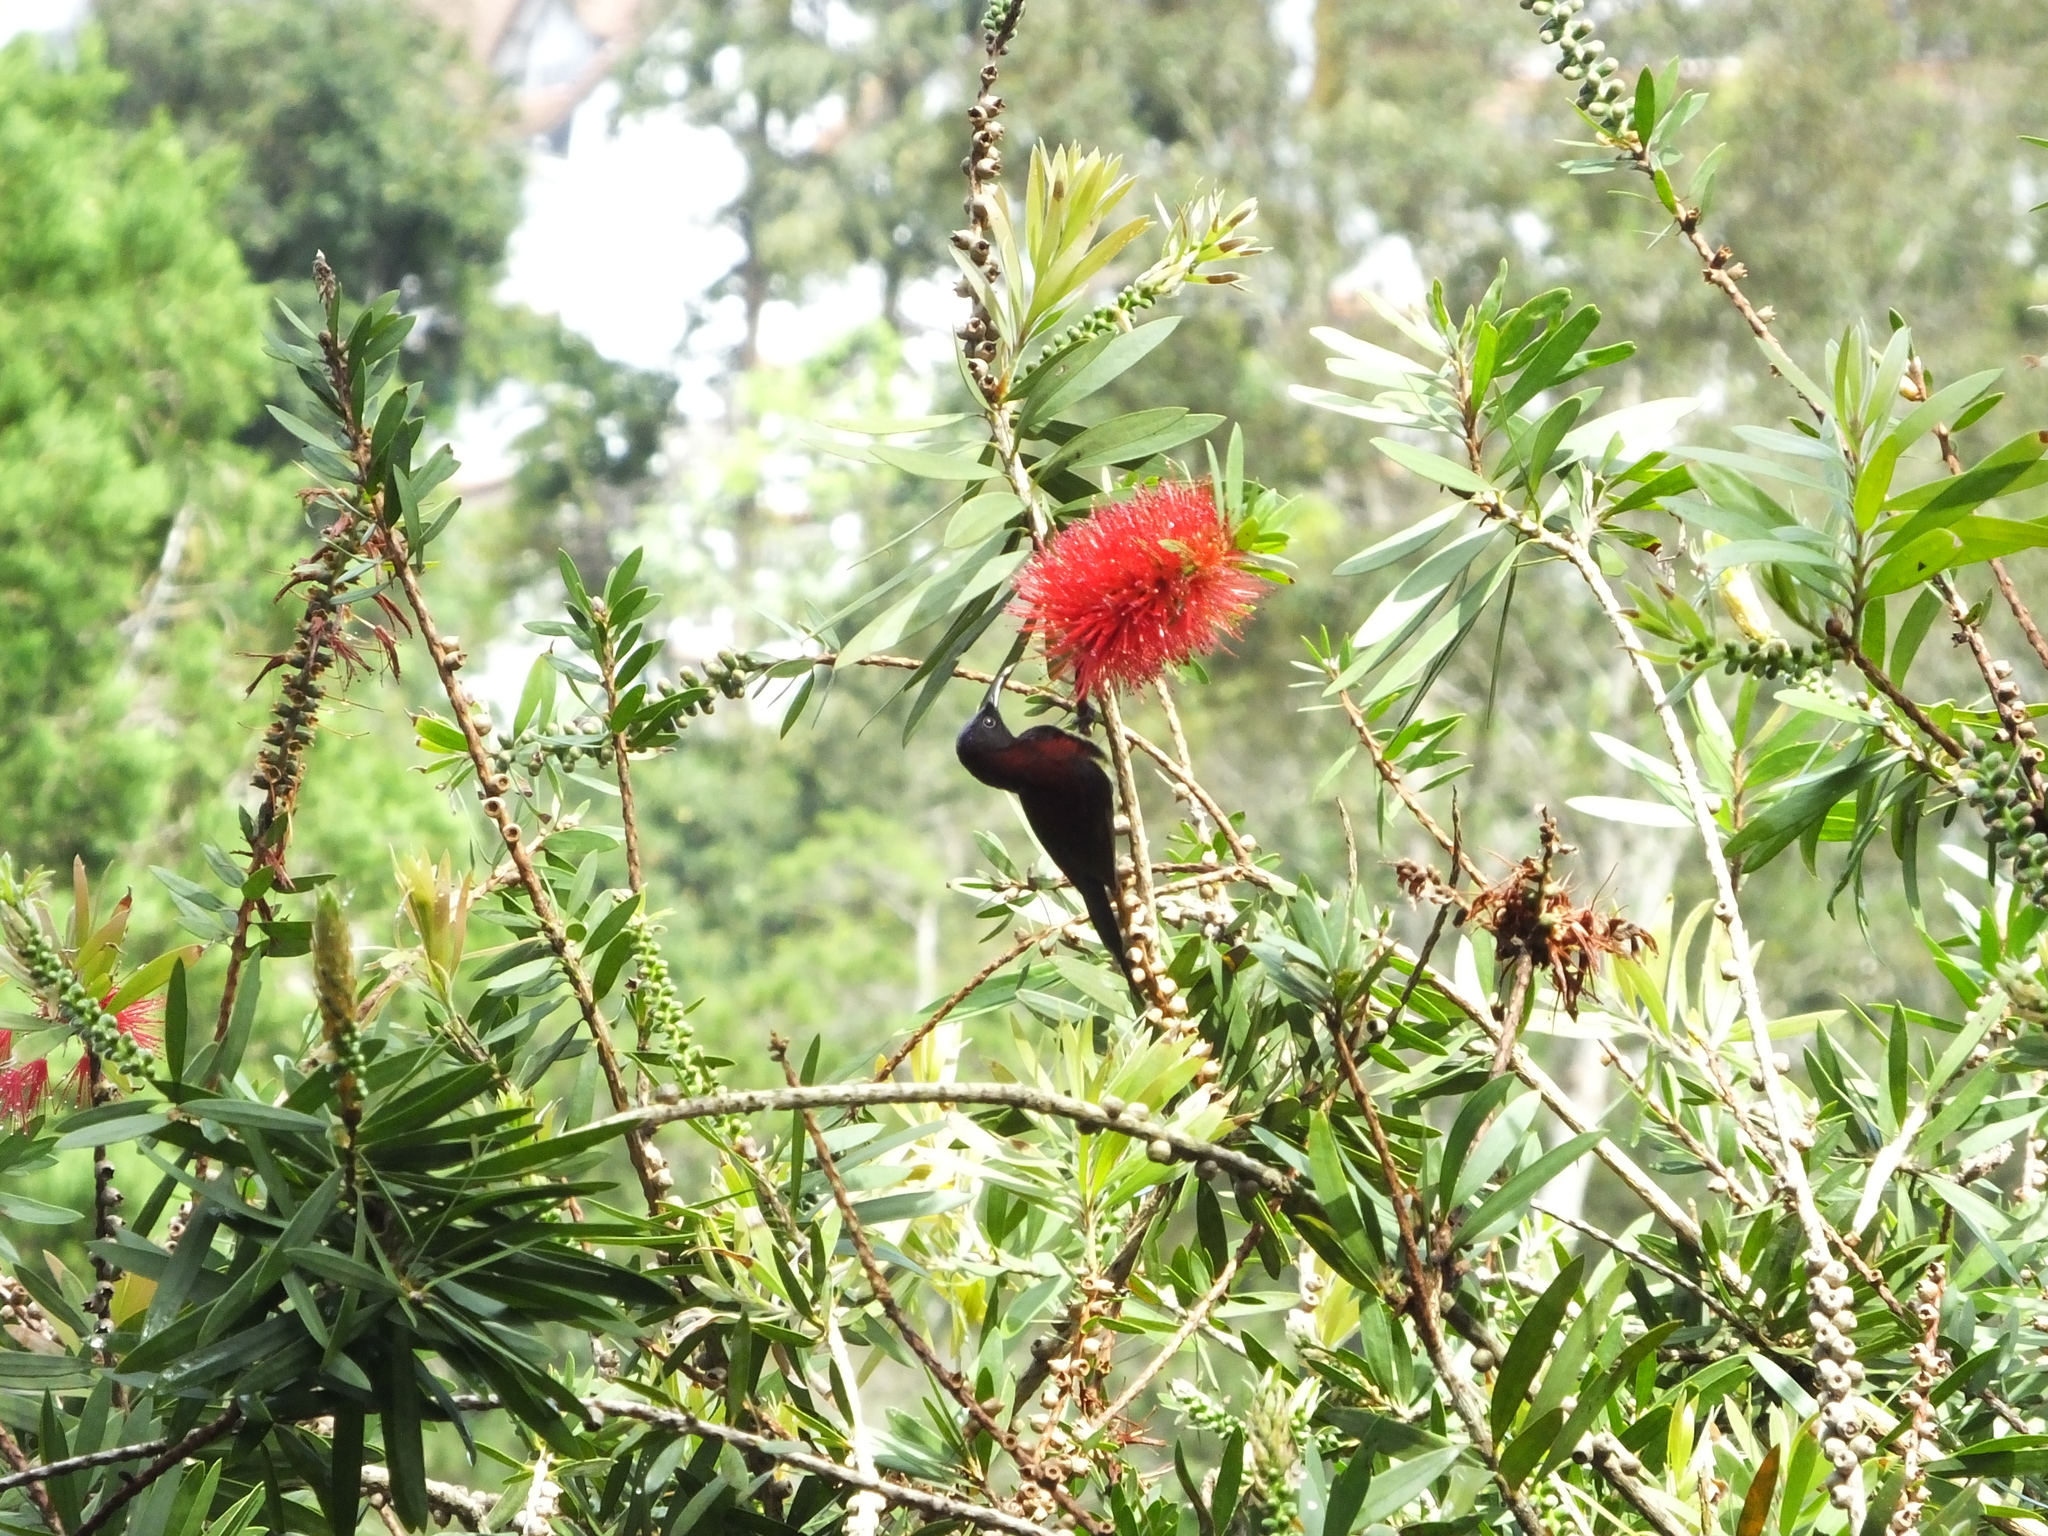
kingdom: Animalia
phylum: Chordata
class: Aves
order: Passeriformes
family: Nectariniidae
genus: Aethopyga
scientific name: Aethopyga saturata
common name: Black-throated sunbird
